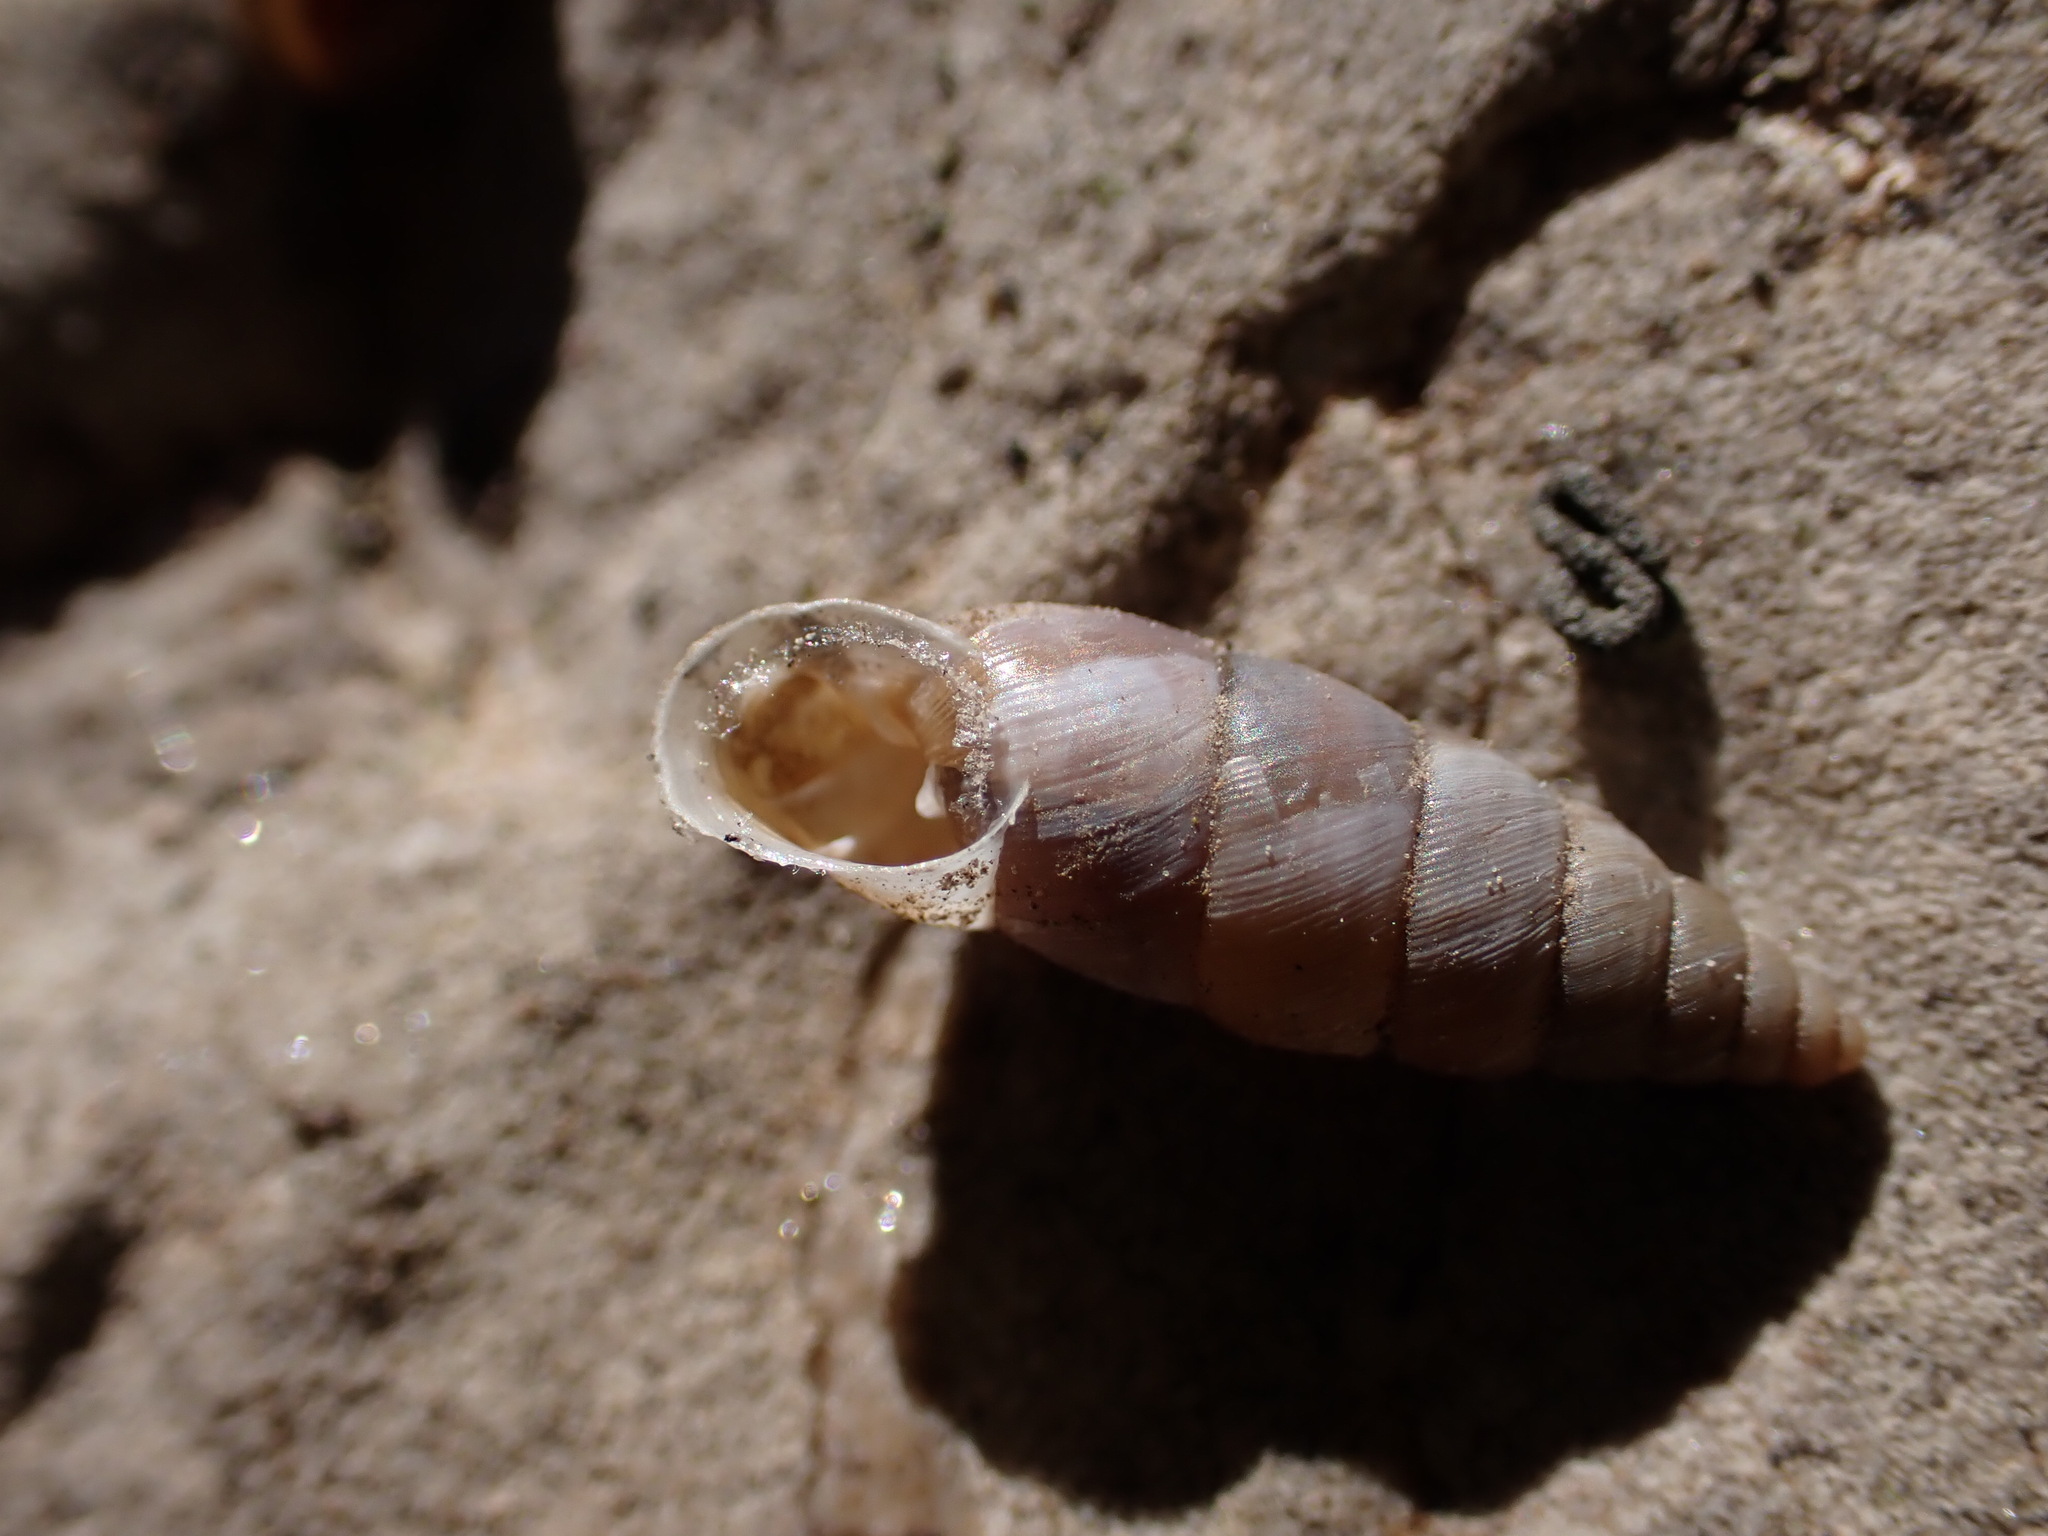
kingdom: Animalia
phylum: Mollusca
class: Gastropoda
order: Stylommatophora
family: Chondrinidae
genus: Solatopupa
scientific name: Solatopupa similis
